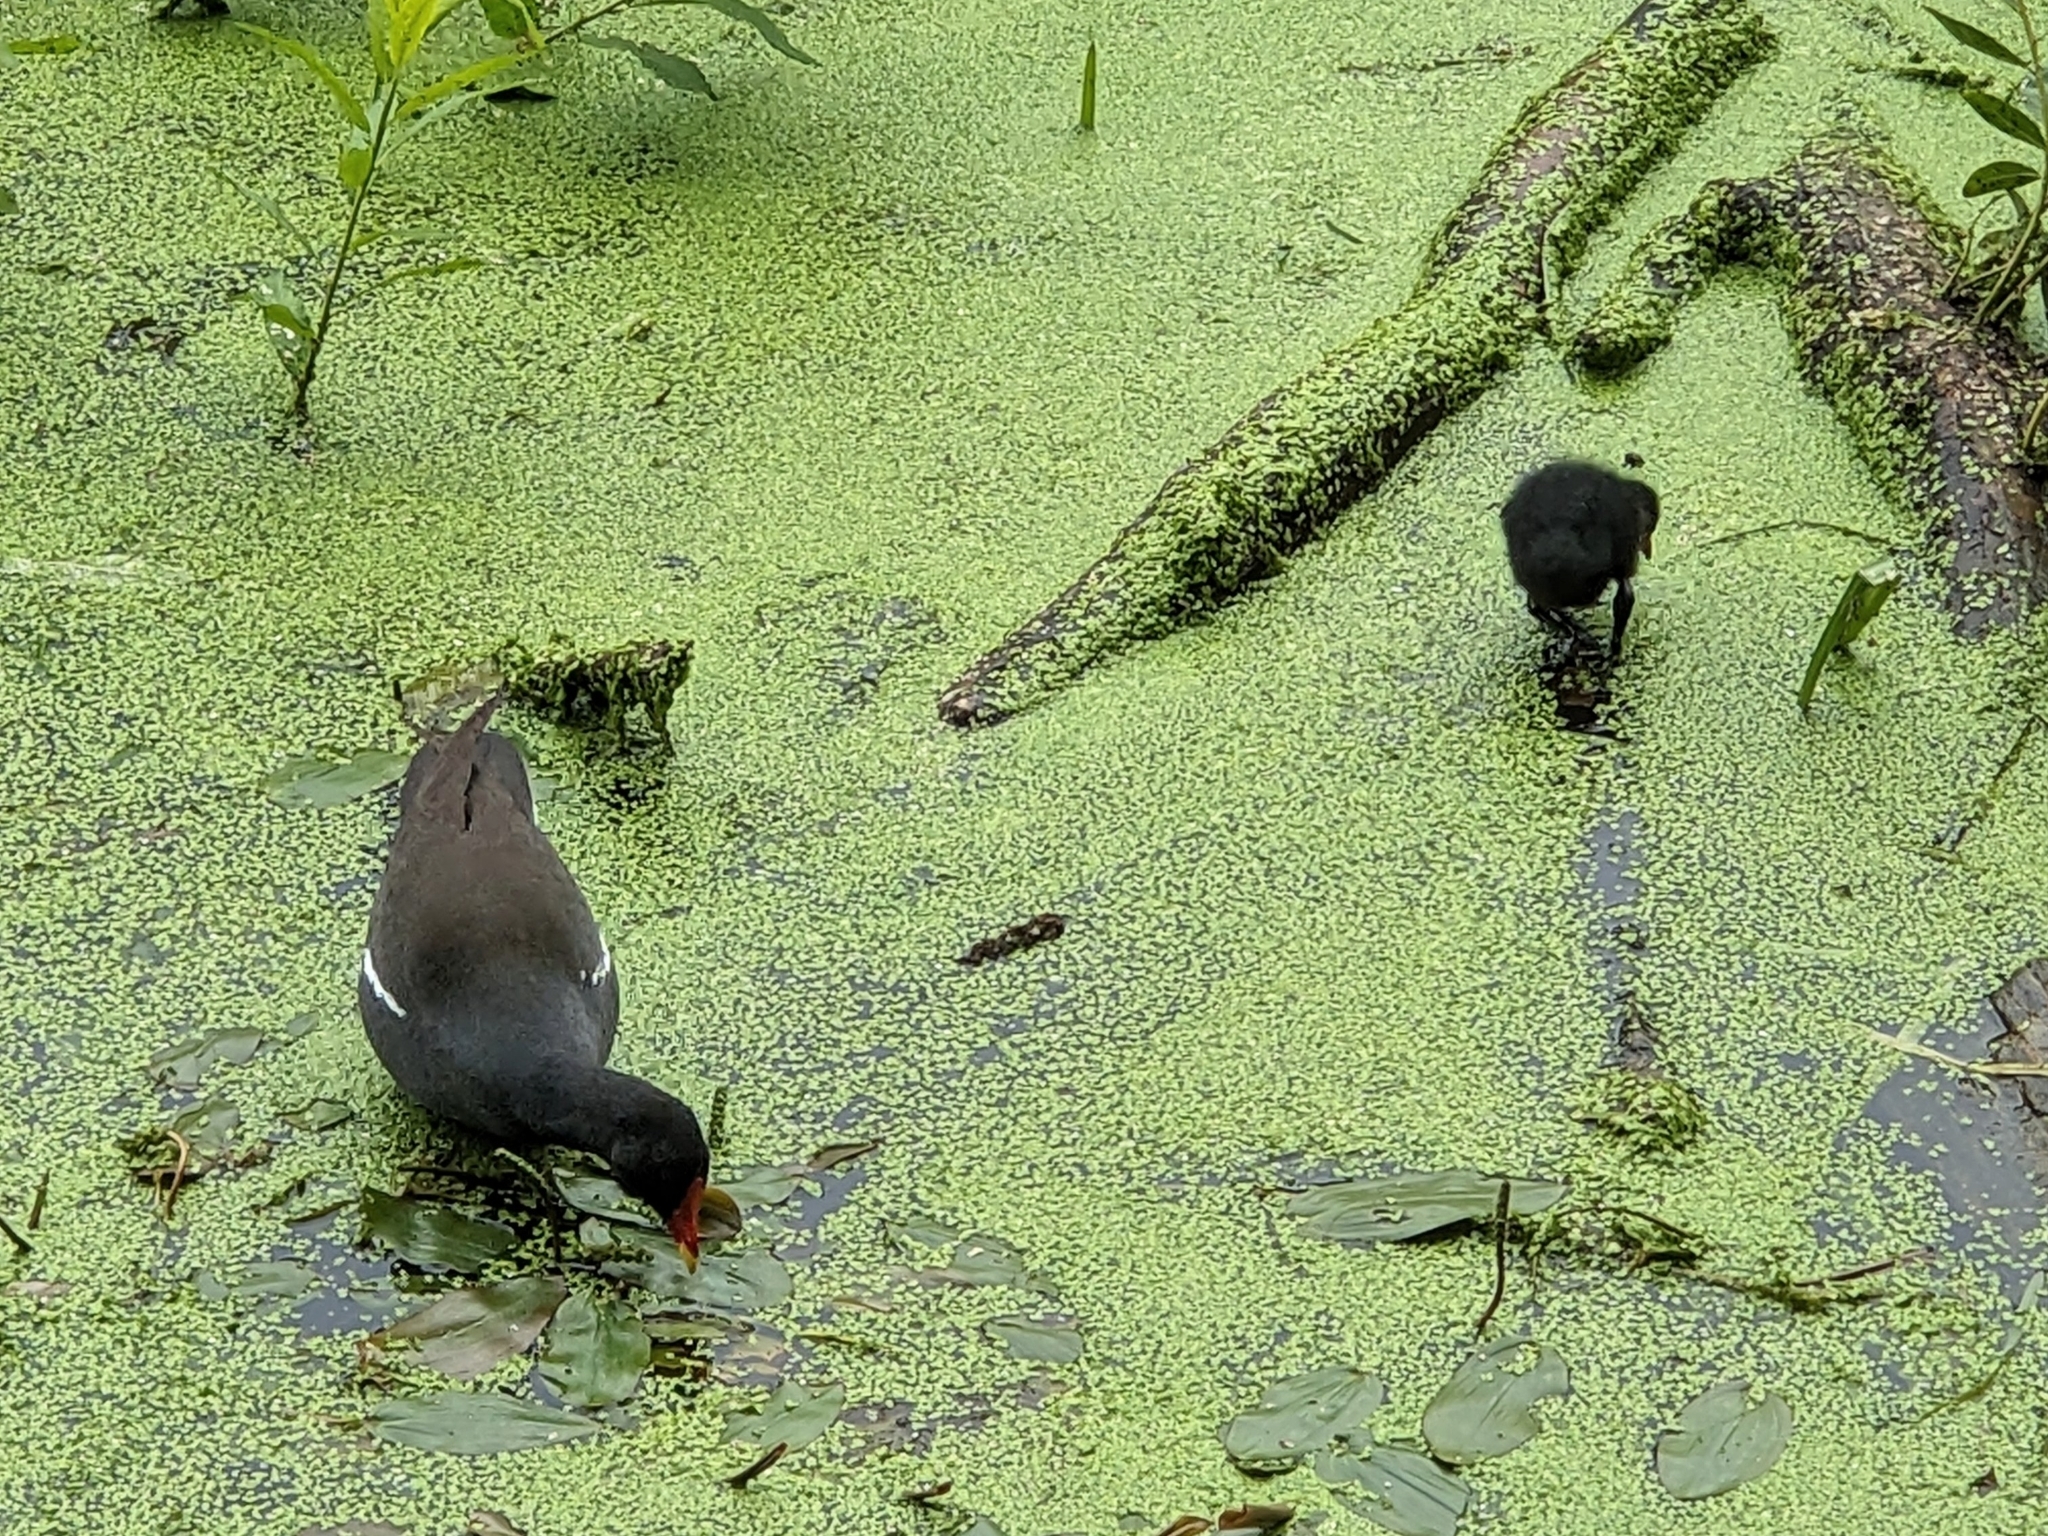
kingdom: Animalia
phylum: Chordata
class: Aves
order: Gruiformes
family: Rallidae
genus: Gallinula
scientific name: Gallinula chloropus
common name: Common moorhen
